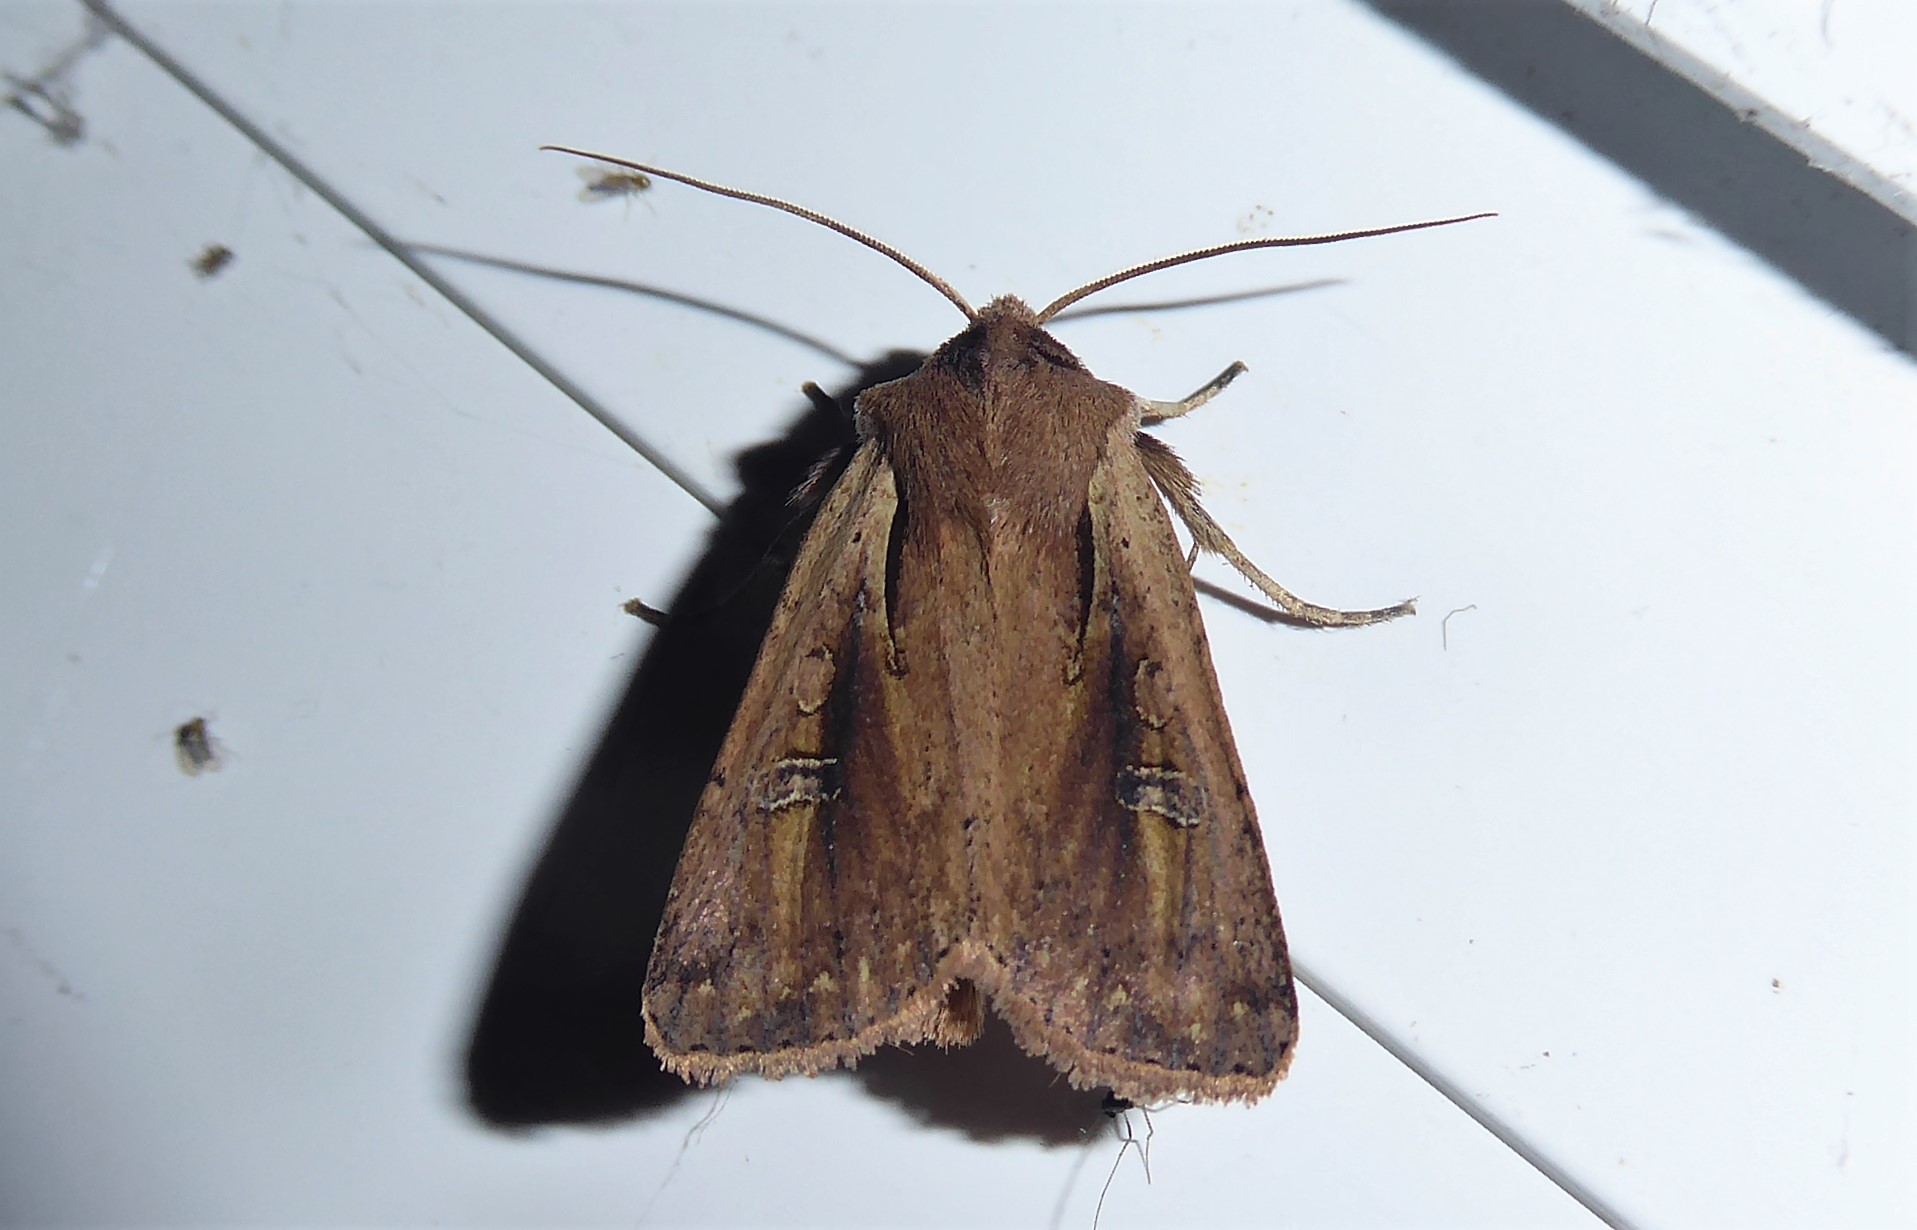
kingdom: Animalia
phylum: Arthropoda
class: Insecta
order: Lepidoptera
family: Noctuidae
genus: Ichneutica
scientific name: Ichneutica atristriga
